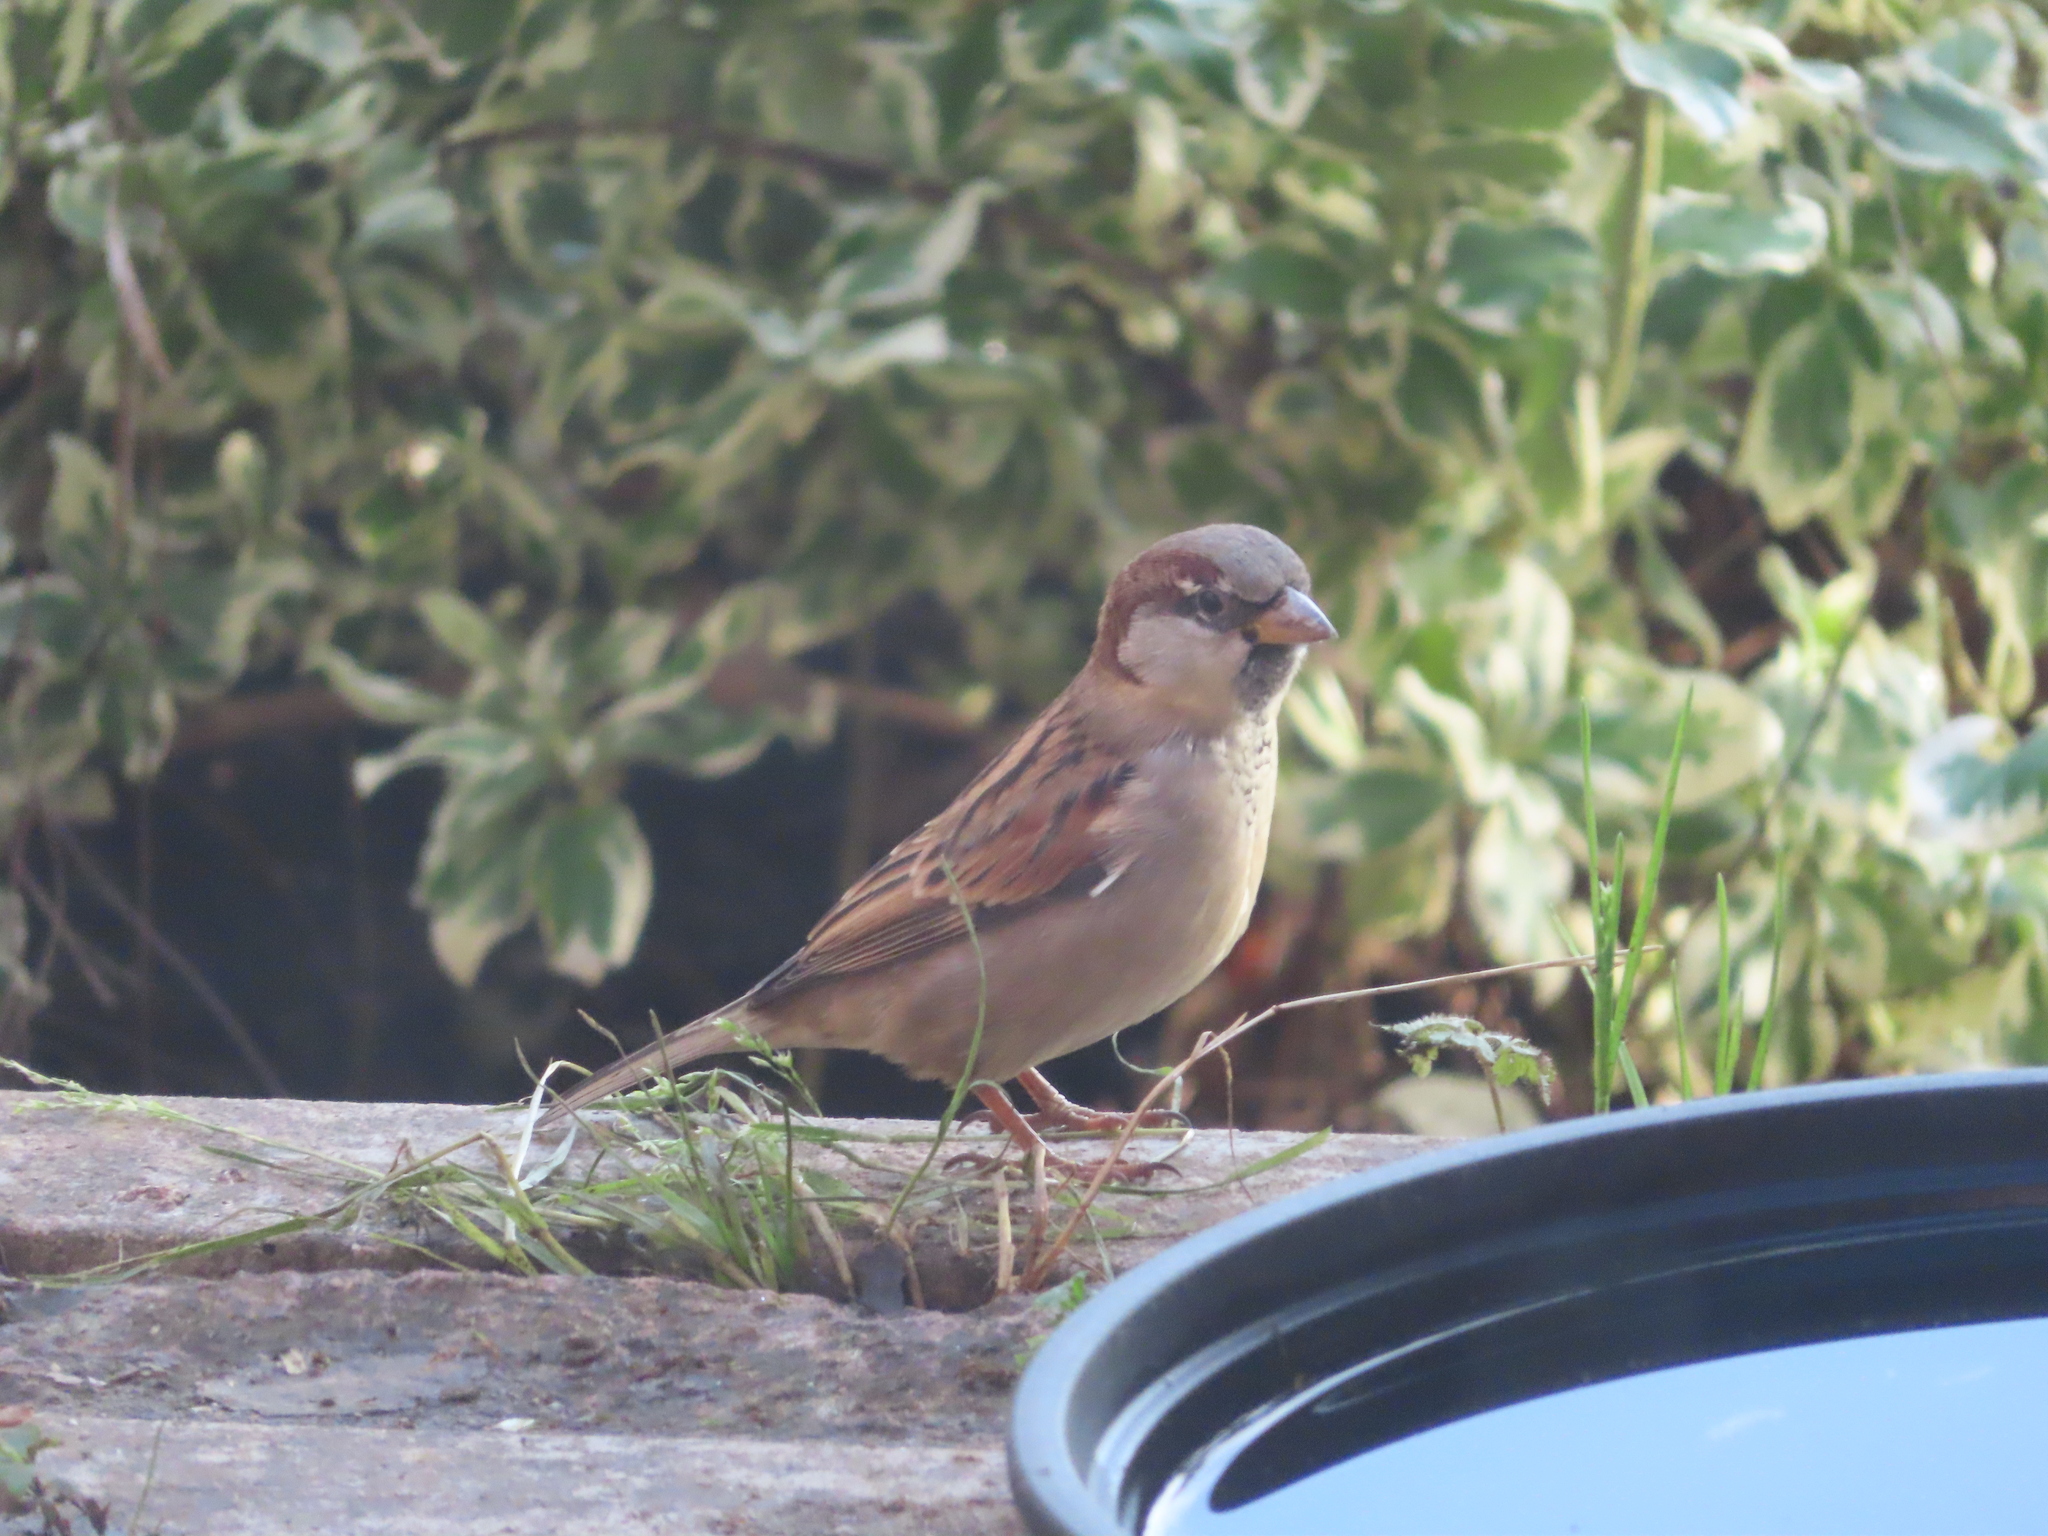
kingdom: Animalia
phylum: Chordata
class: Aves
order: Passeriformes
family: Passeridae
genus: Passer
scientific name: Passer domesticus
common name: House sparrow
